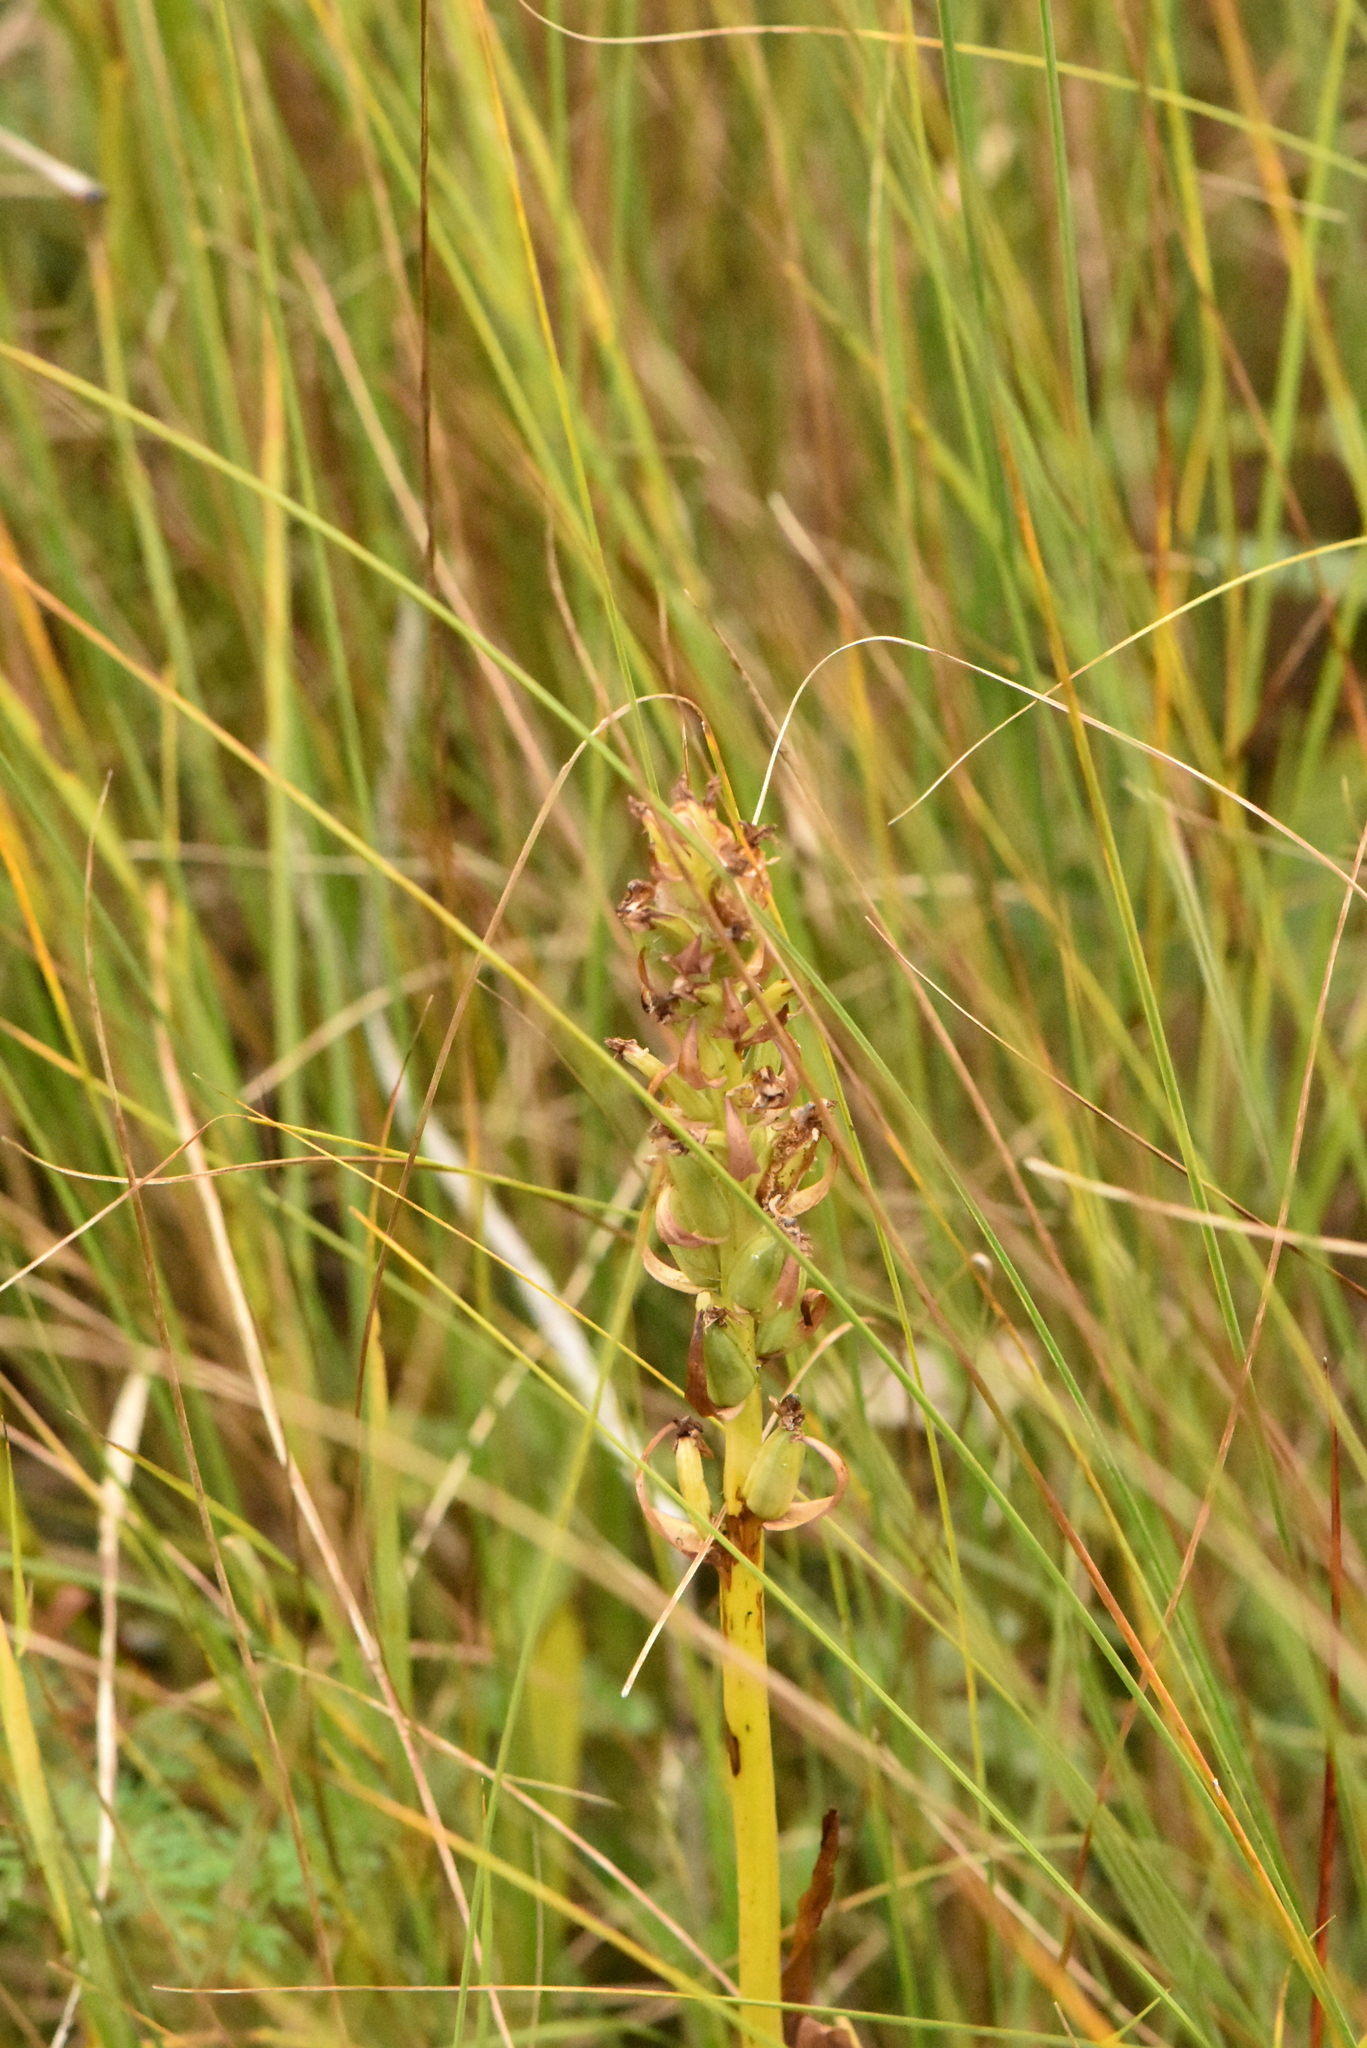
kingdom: Plantae
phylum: Tracheophyta
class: Liliopsida
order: Asparagales
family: Orchidaceae
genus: Dactylorhiza
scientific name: Dactylorhiza incarnata
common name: Early marsh-orchid
